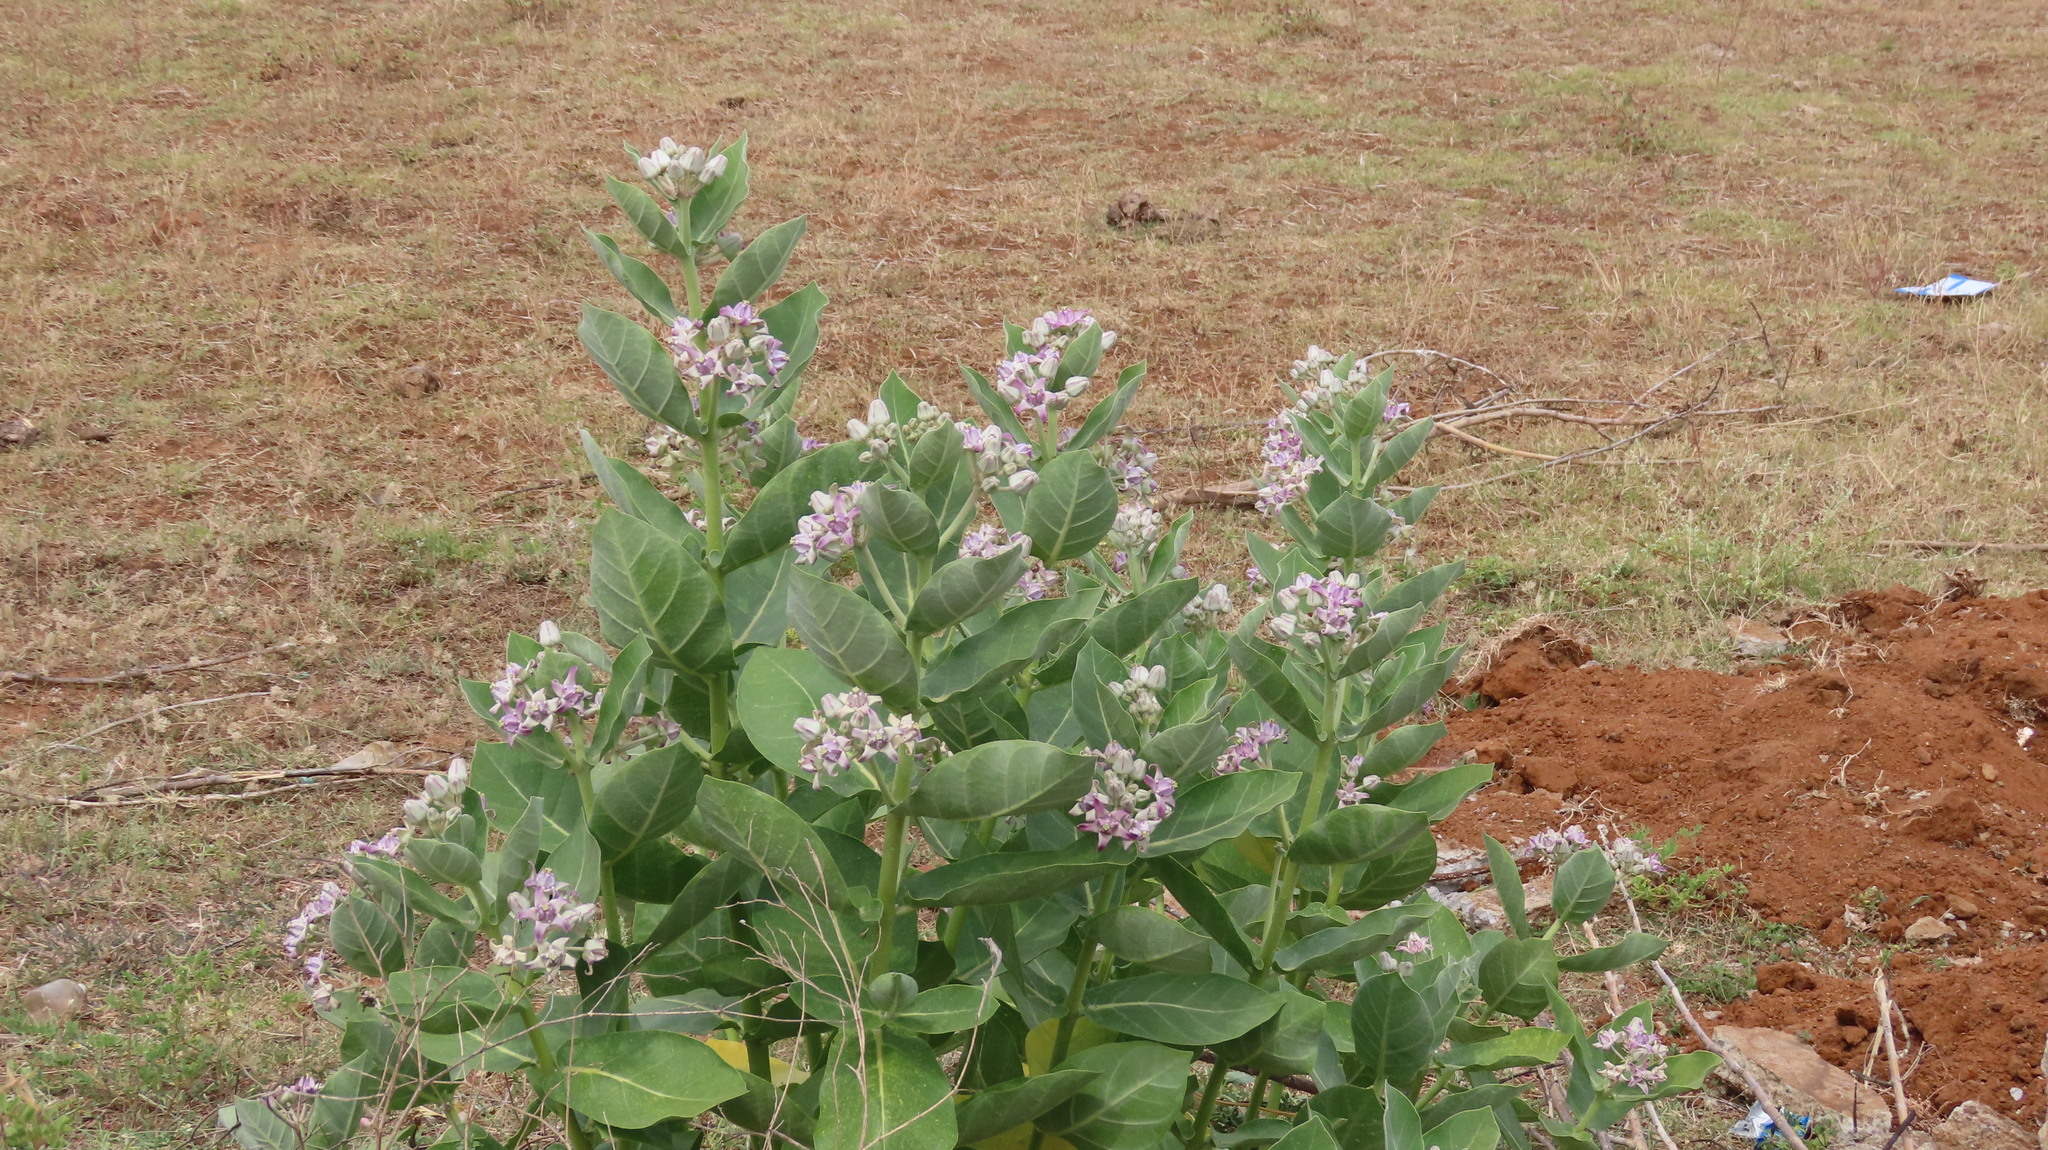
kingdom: Plantae
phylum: Tracheophyta
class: Magnoliopsida
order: Gentianales
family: Apocynaceae
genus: Calotropis
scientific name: Calotropis gigantea
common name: Crown flower
